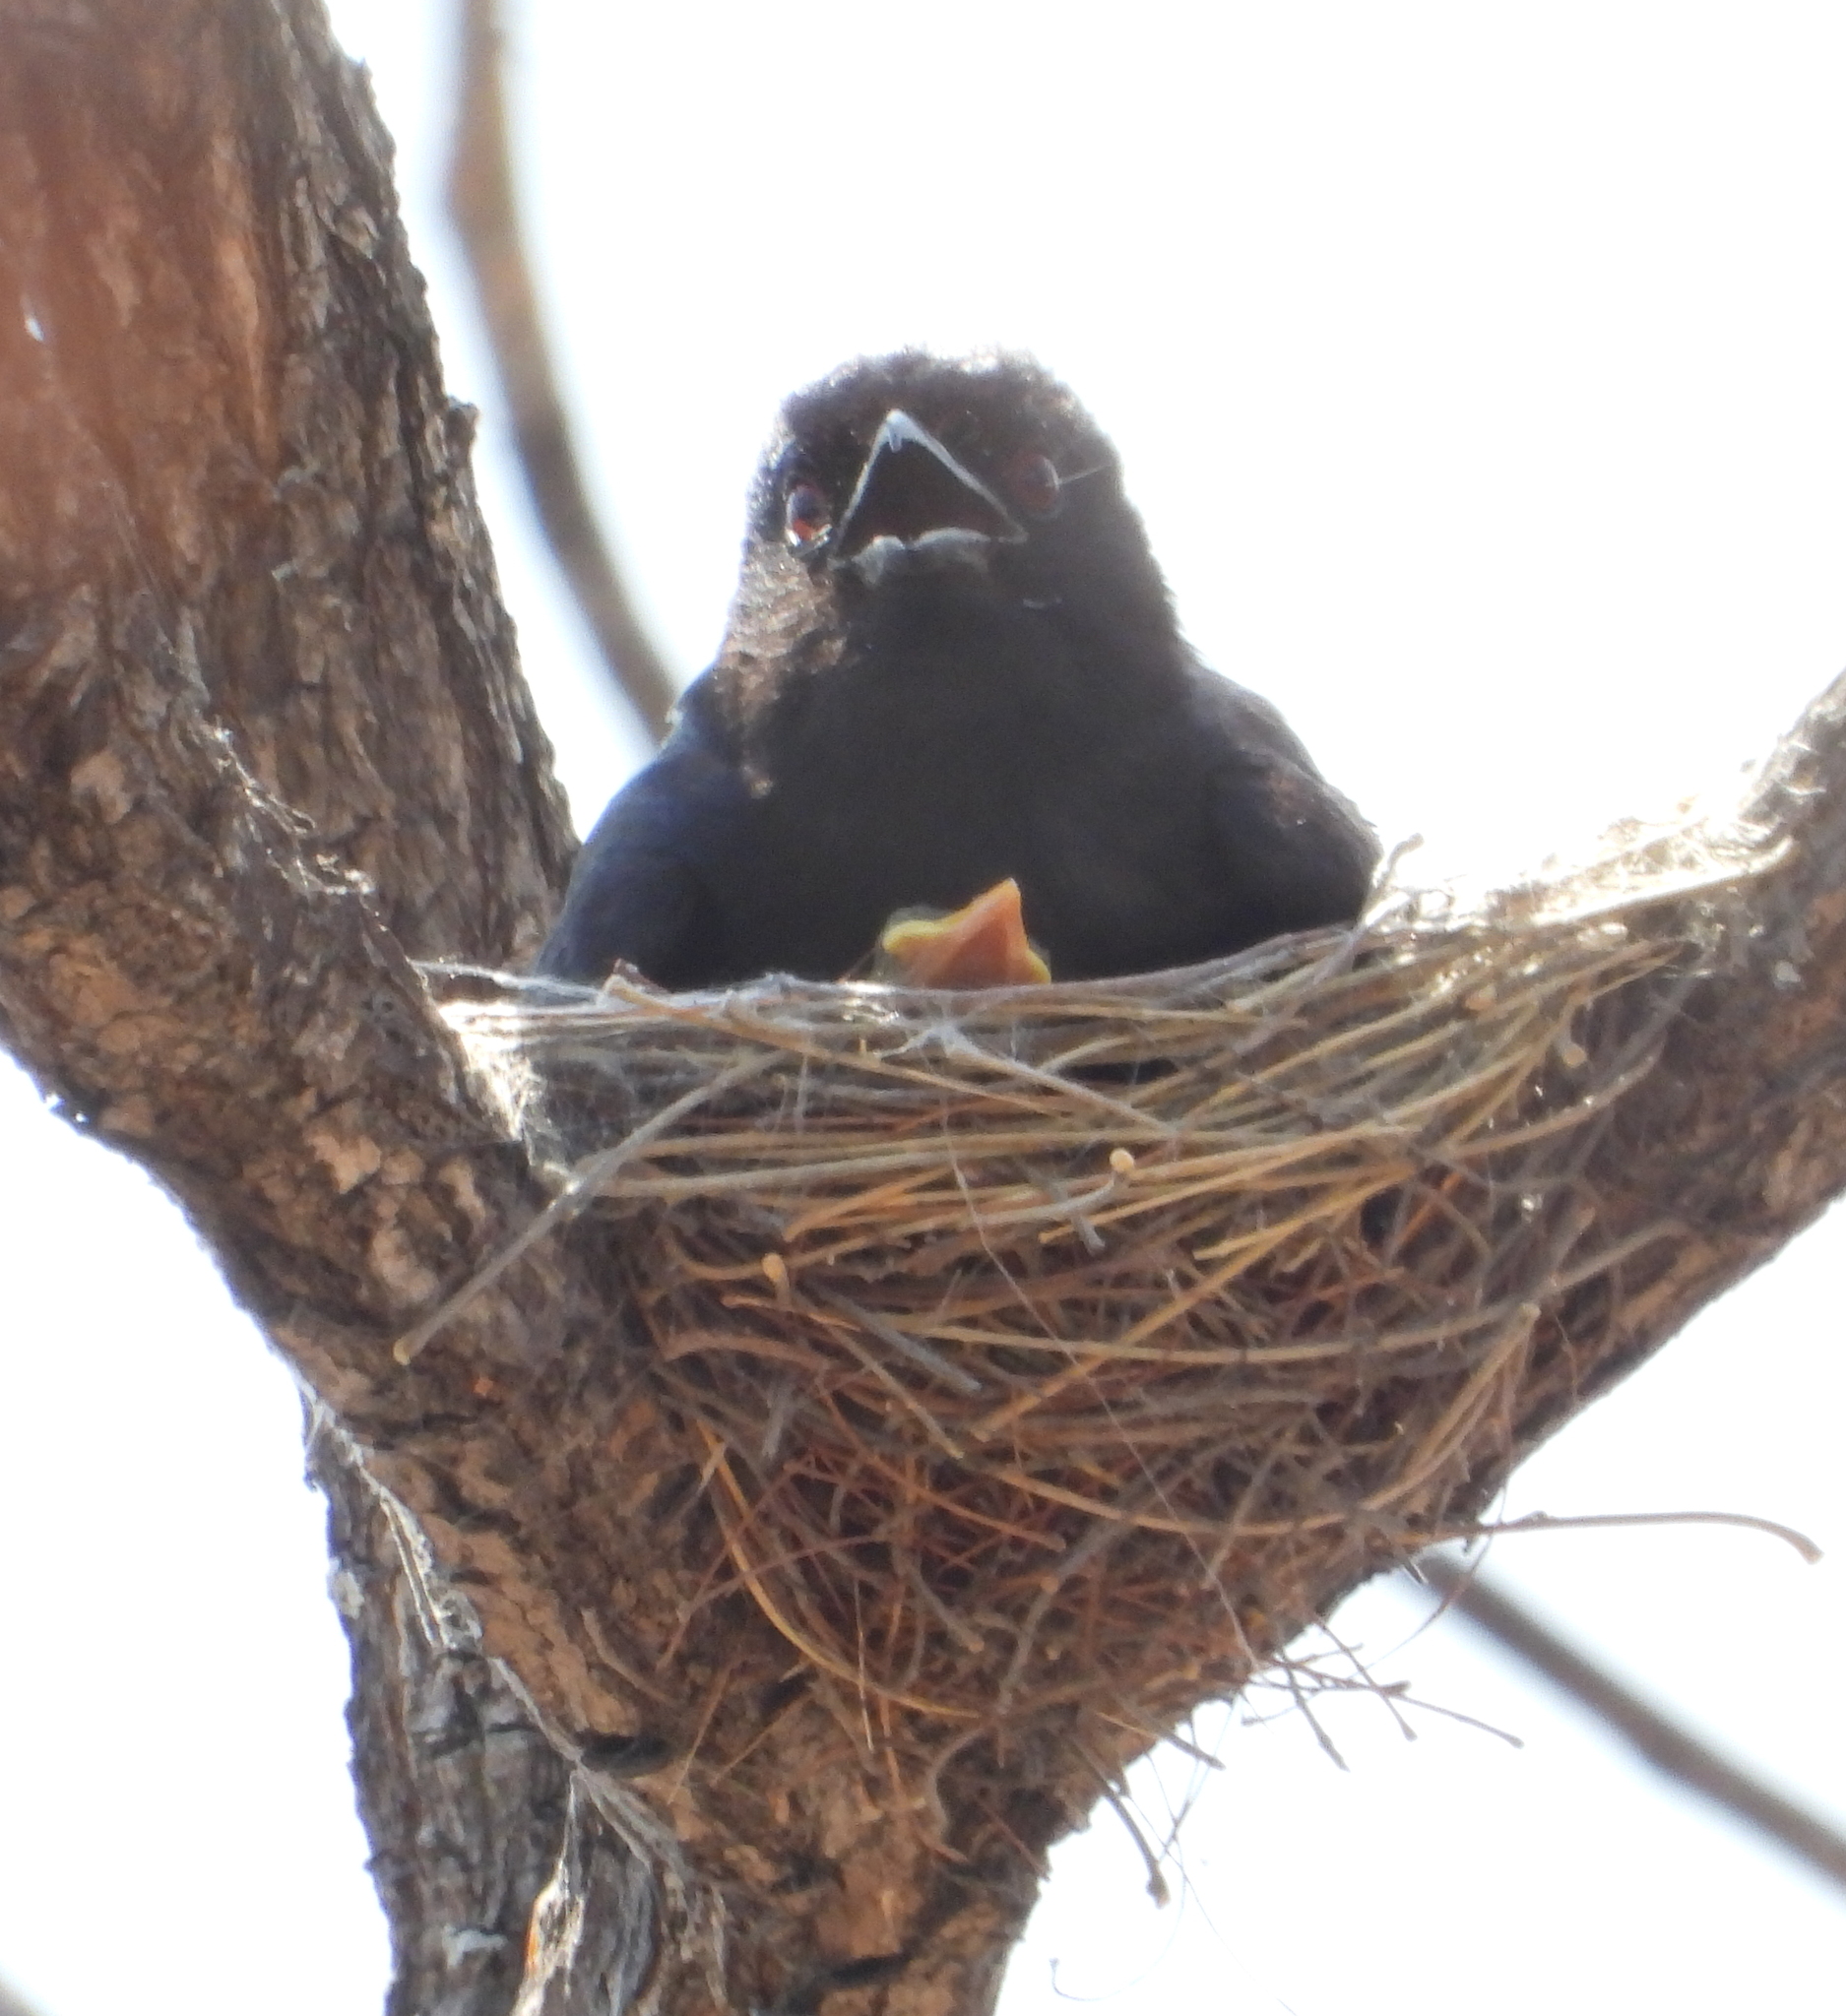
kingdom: Animalia
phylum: Chordata
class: Aves
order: Passeriformes
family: Dicruridae
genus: Dicrurus
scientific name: Dicrurus adsimilis
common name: Fork-tailed drongo
